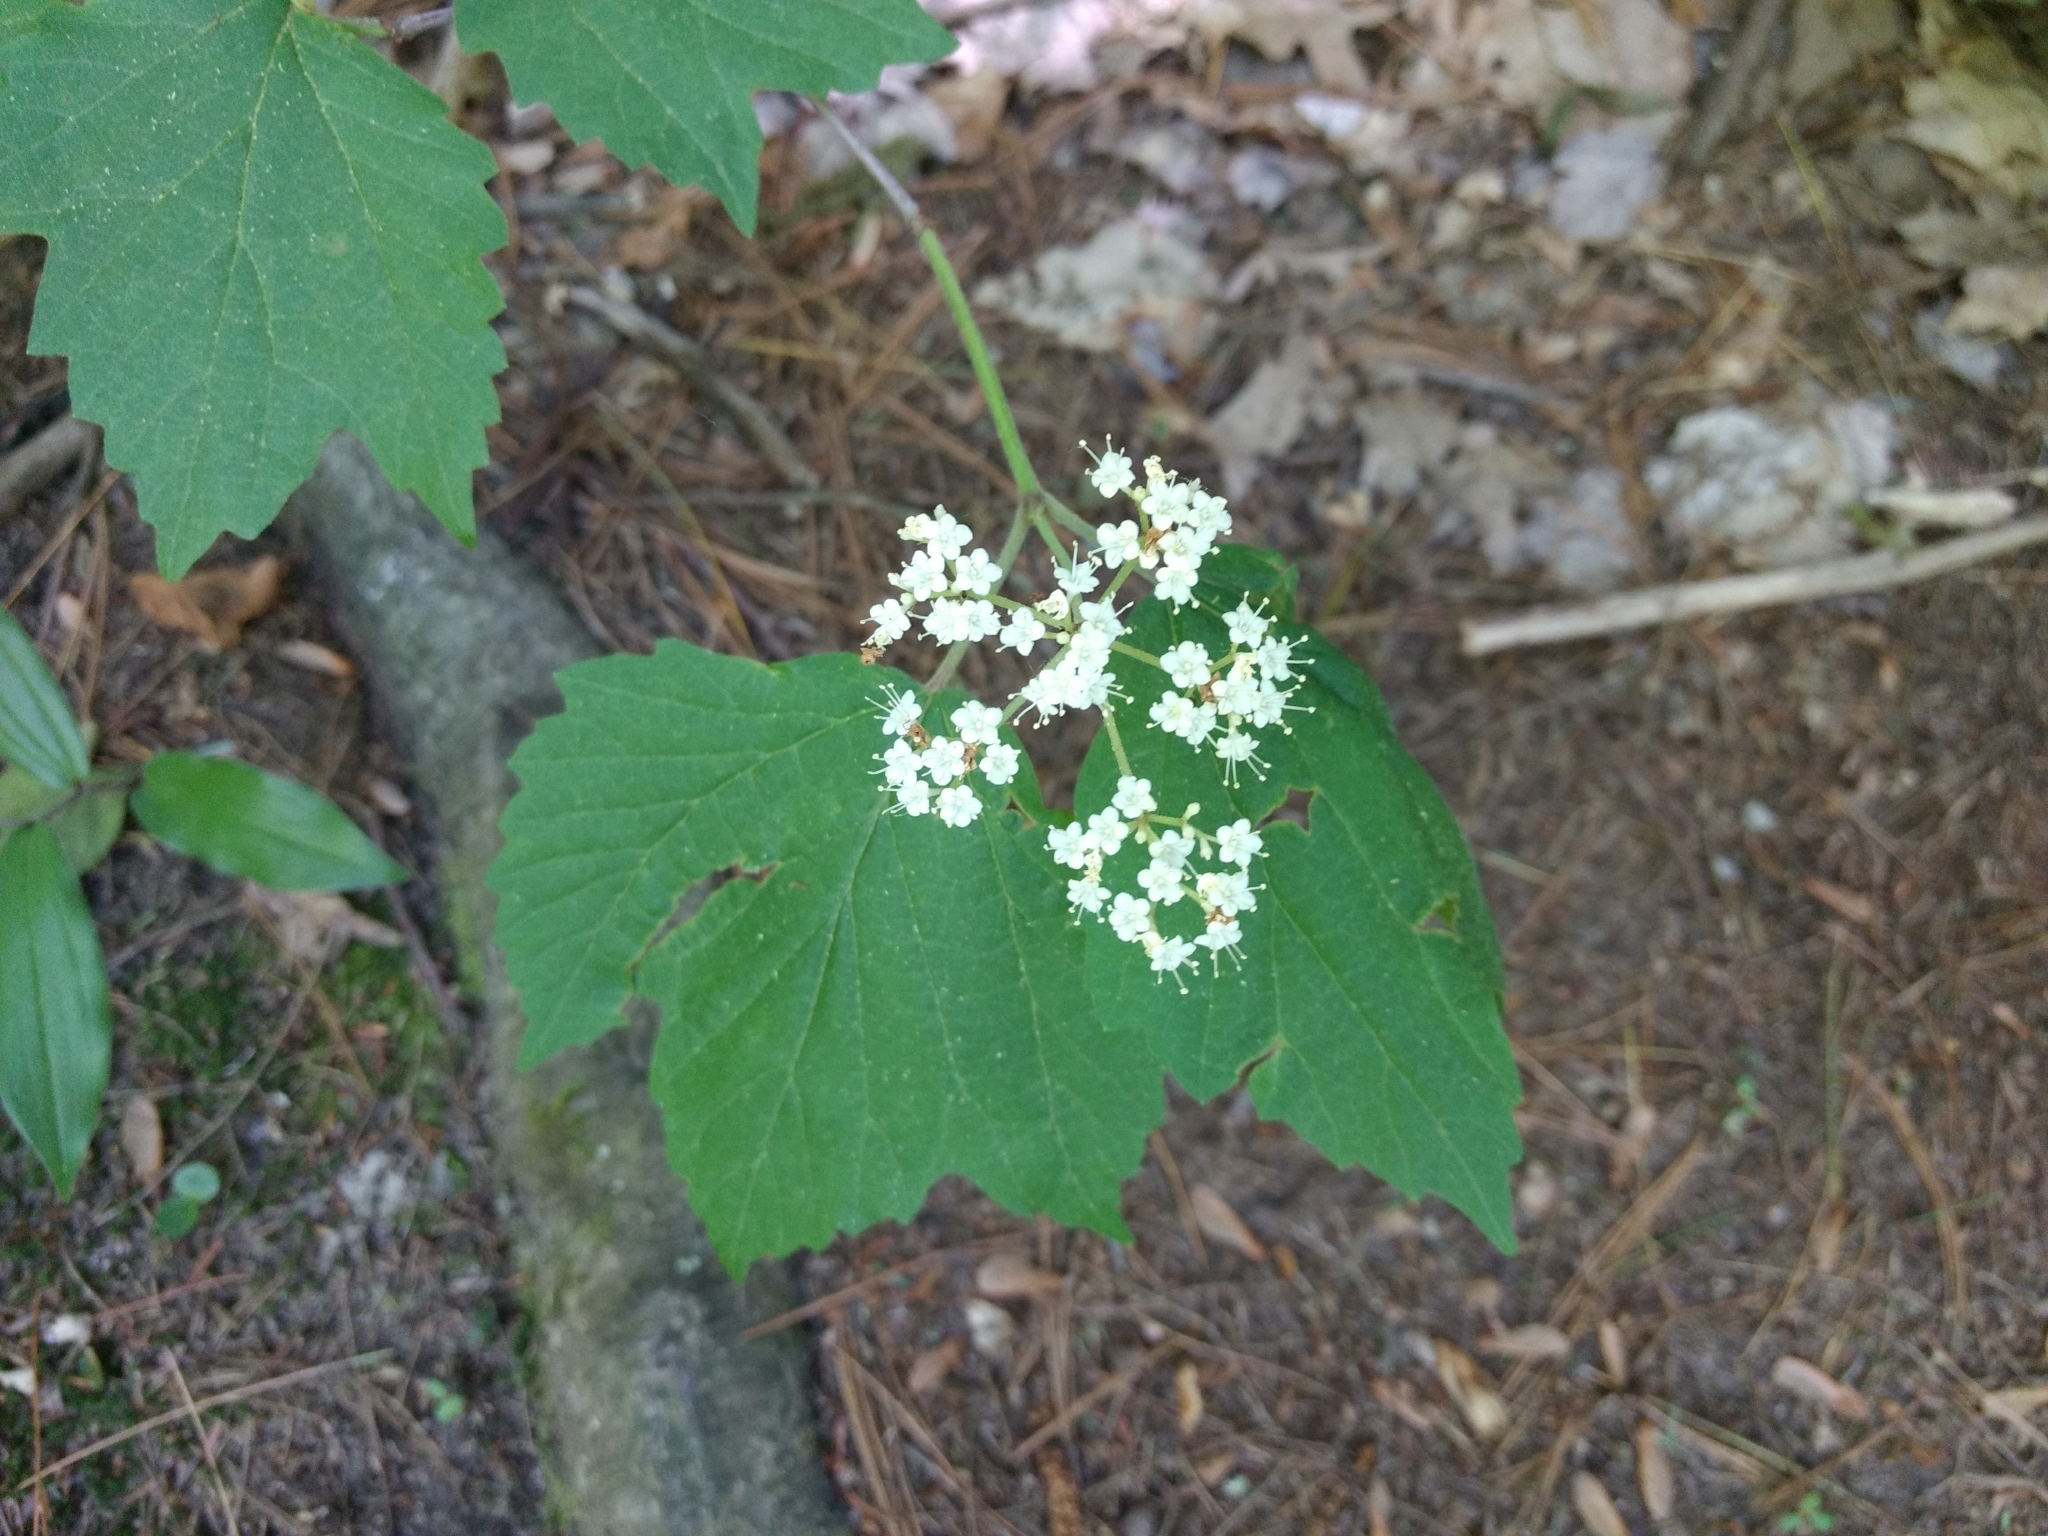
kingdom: Plantae
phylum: Tracheophyta
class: Magnoliopsida
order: Dipsacales
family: Viburnaceae
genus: Viburnum
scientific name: Viburnum acerifolium
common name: Dockmackie
